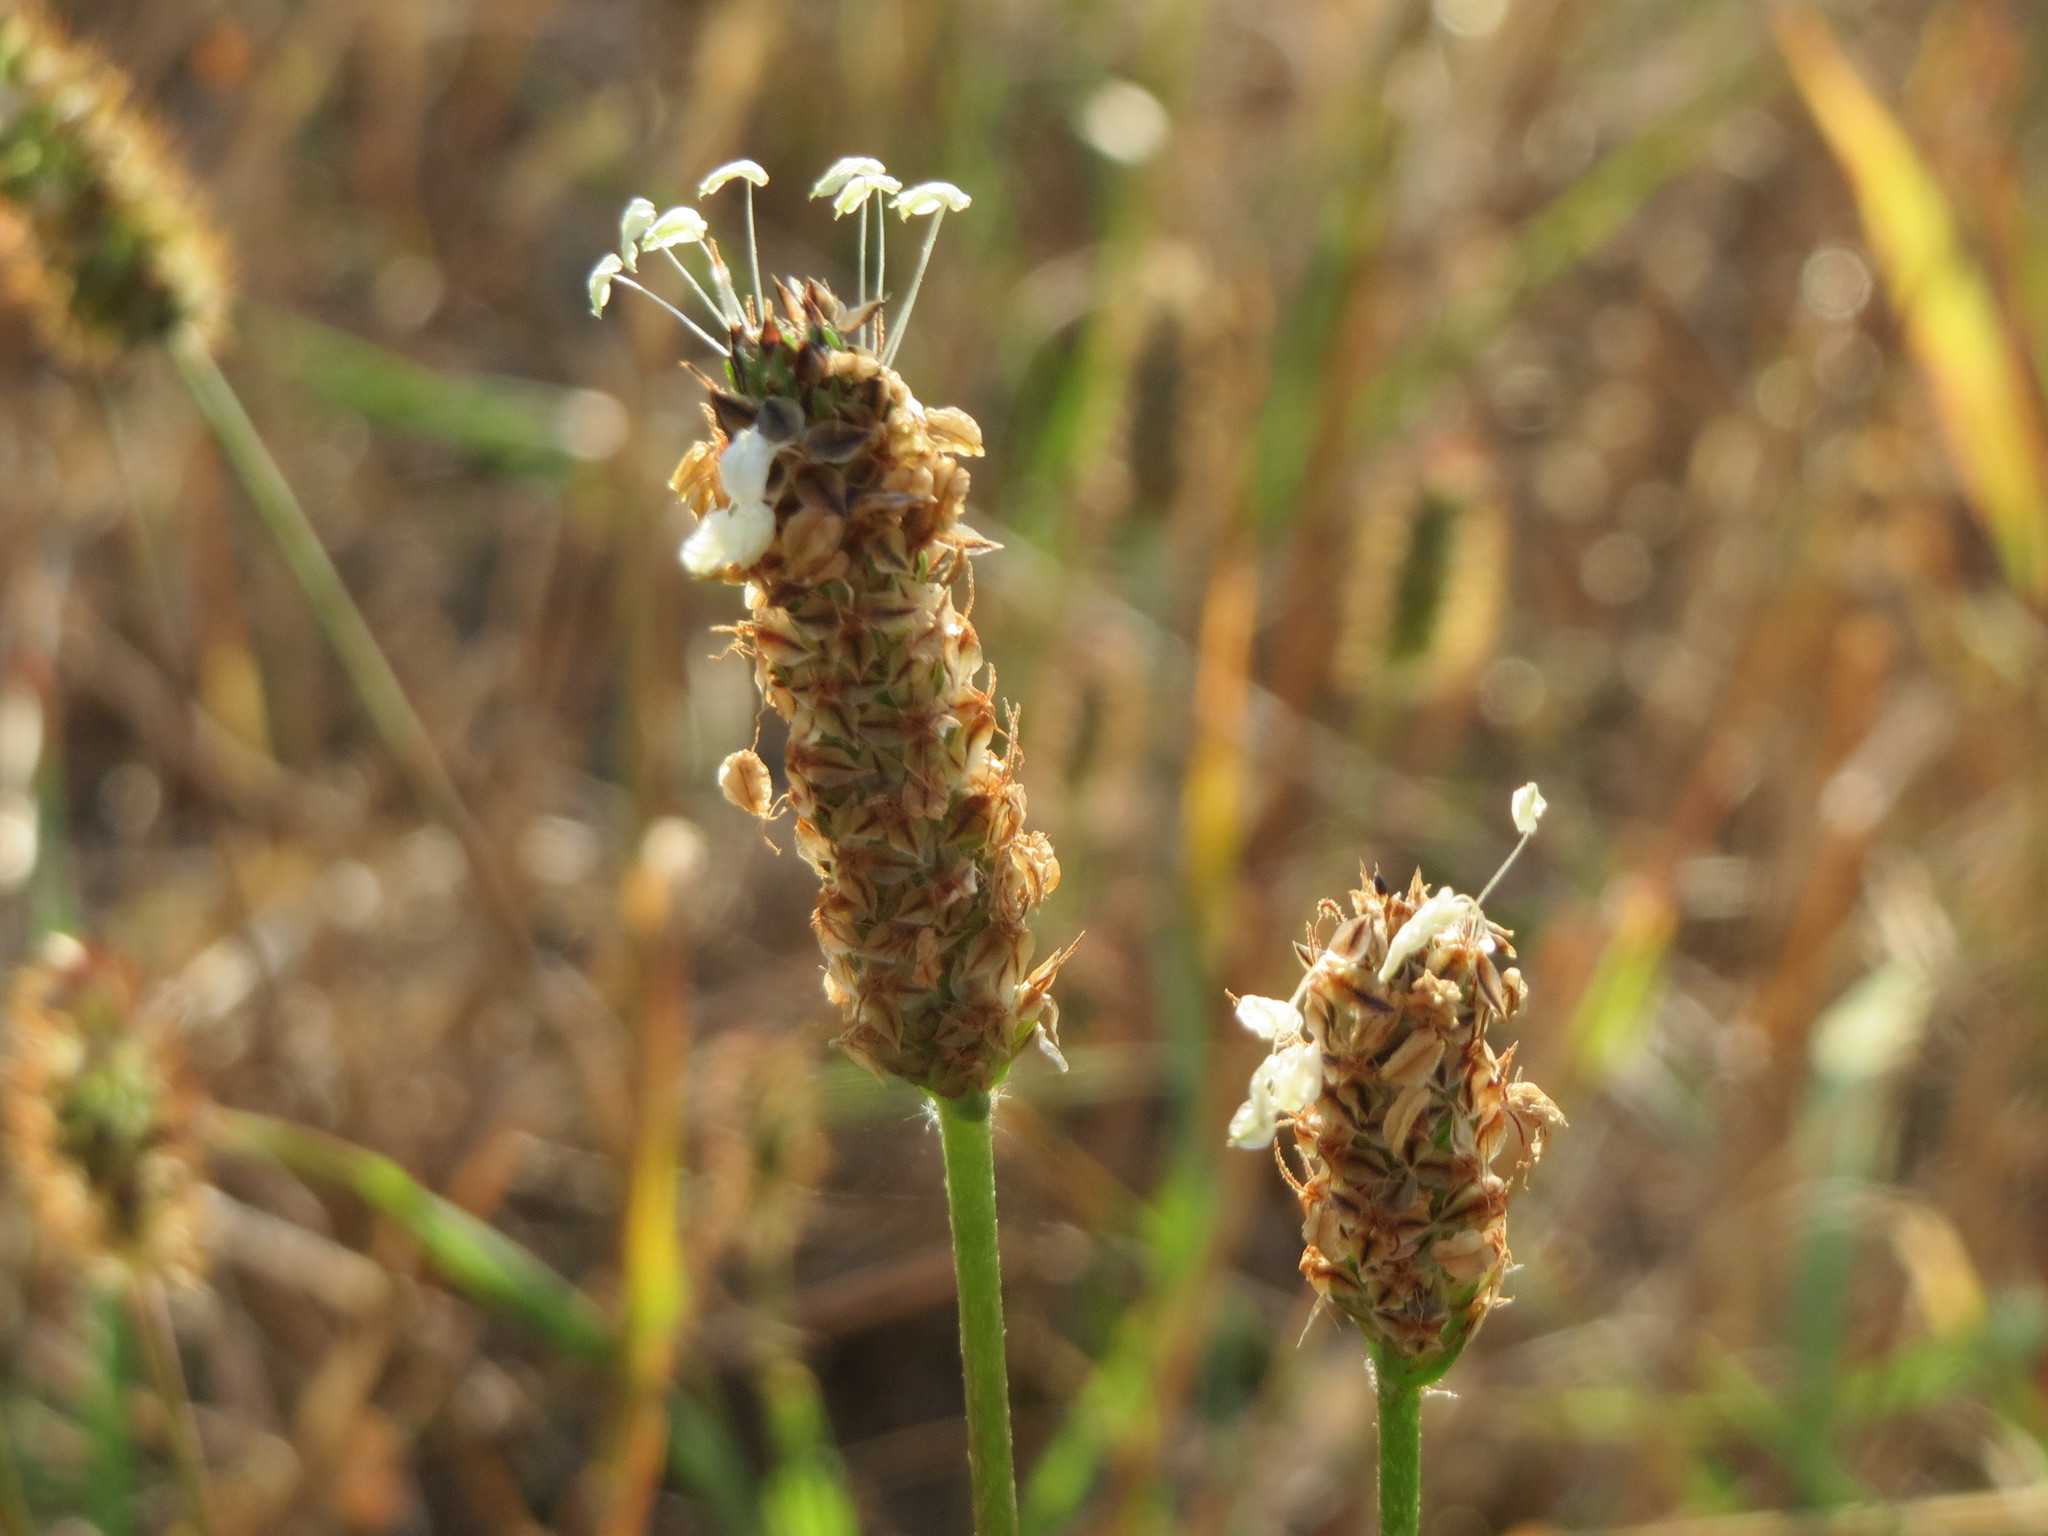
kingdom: Plantae
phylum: Tracheophyta
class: Magnoliopsida
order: Lamiales
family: Plantaginaceae
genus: Plantago
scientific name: Plantago lanceolata
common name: Ribwort plantain
